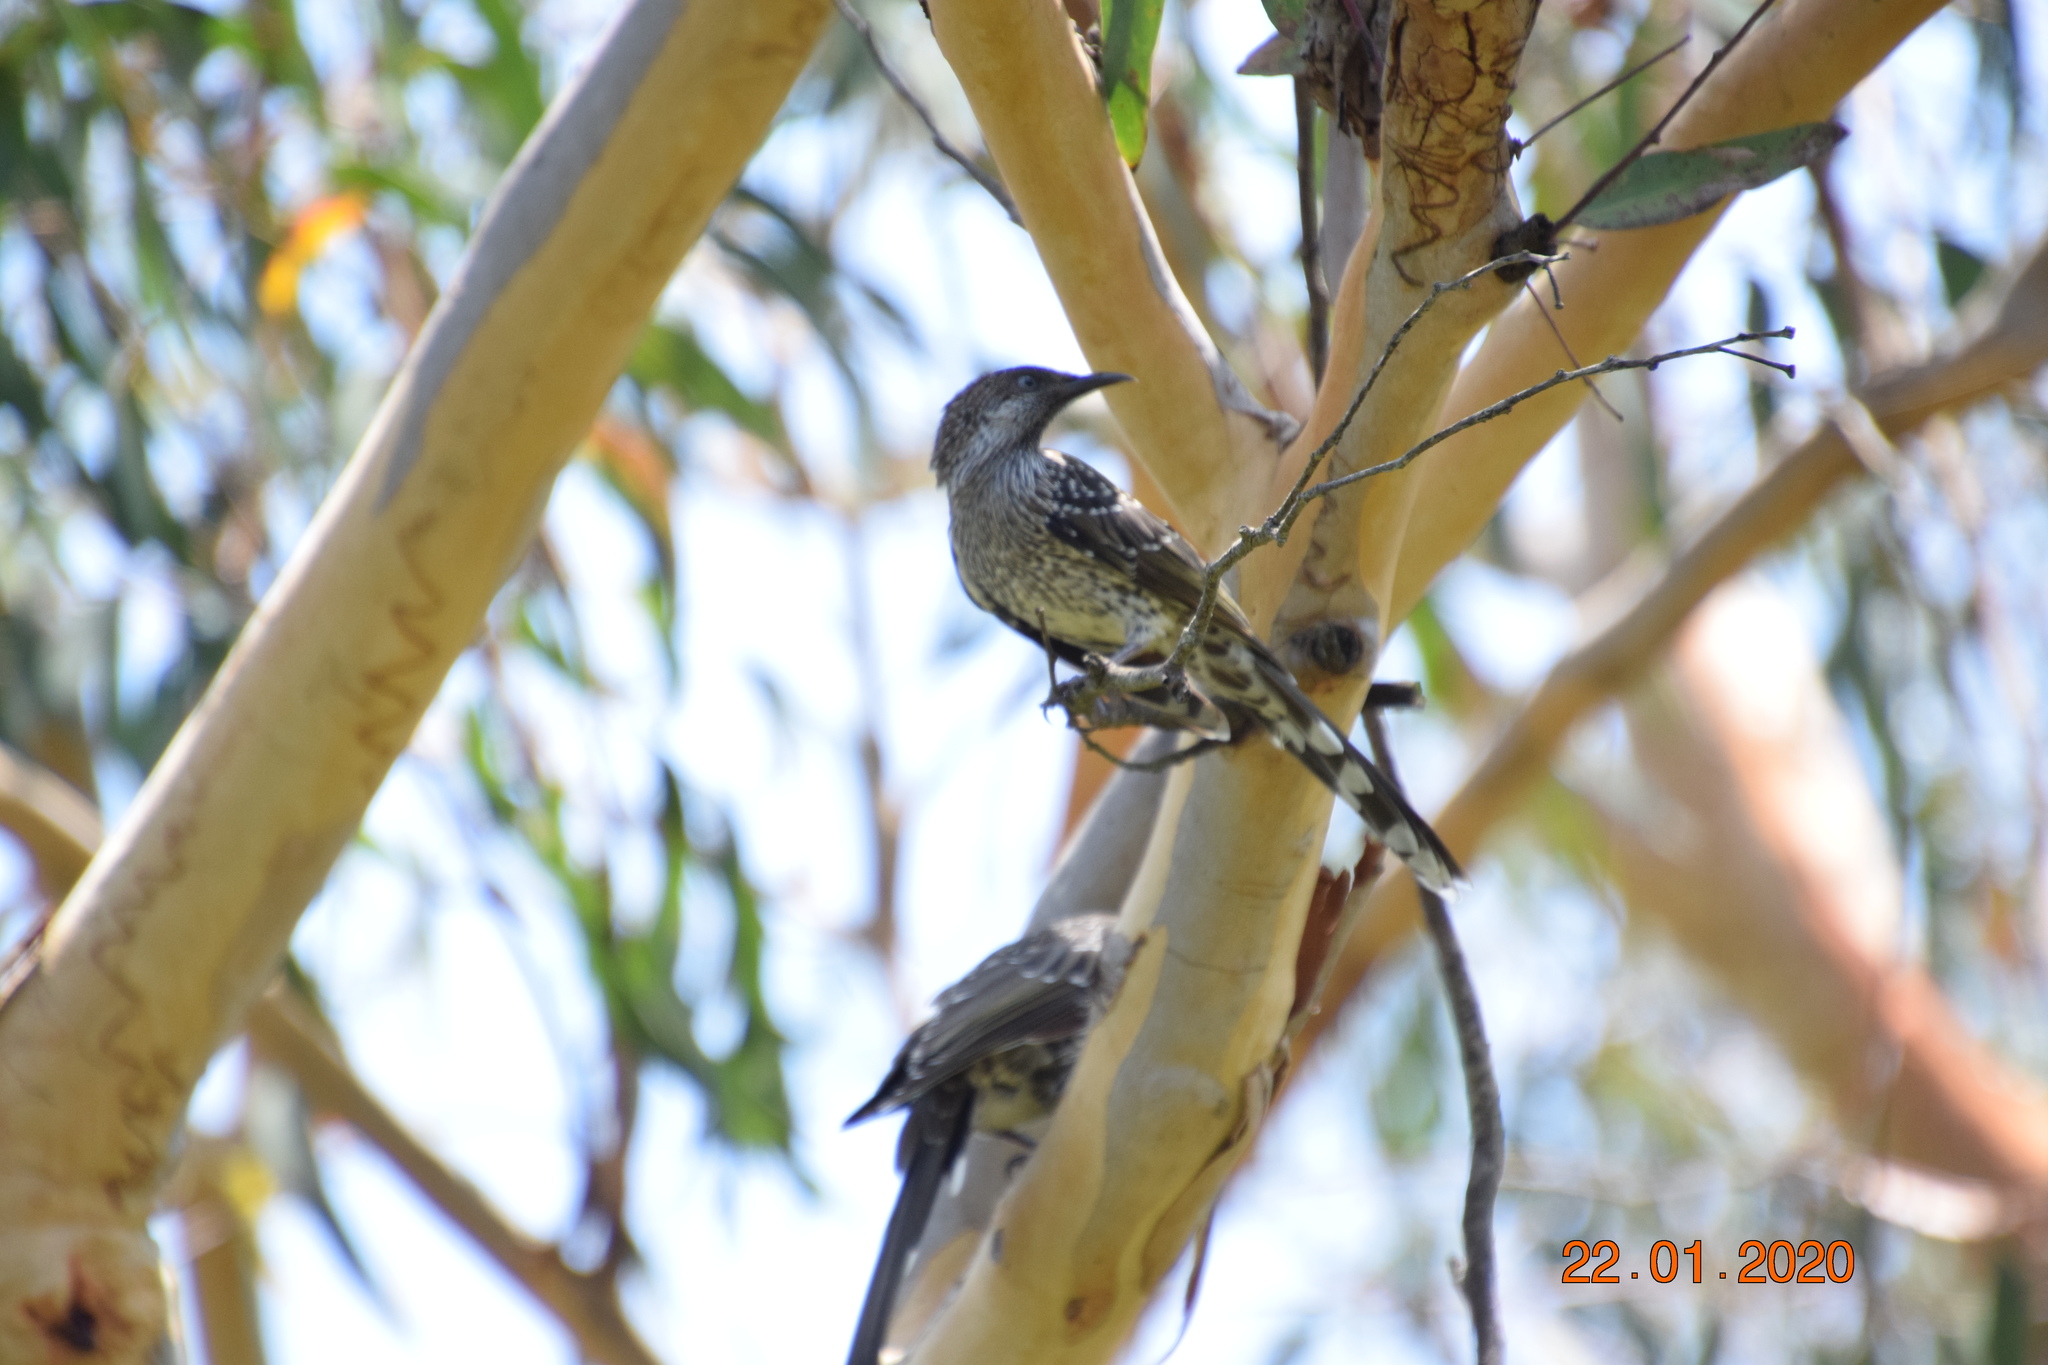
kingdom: Animalia
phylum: Chordata
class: Aves
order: Passeriformes
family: Meliphagidae
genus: Anthochaera
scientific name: Anthochaera chrysoptera
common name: Little wattlebird
